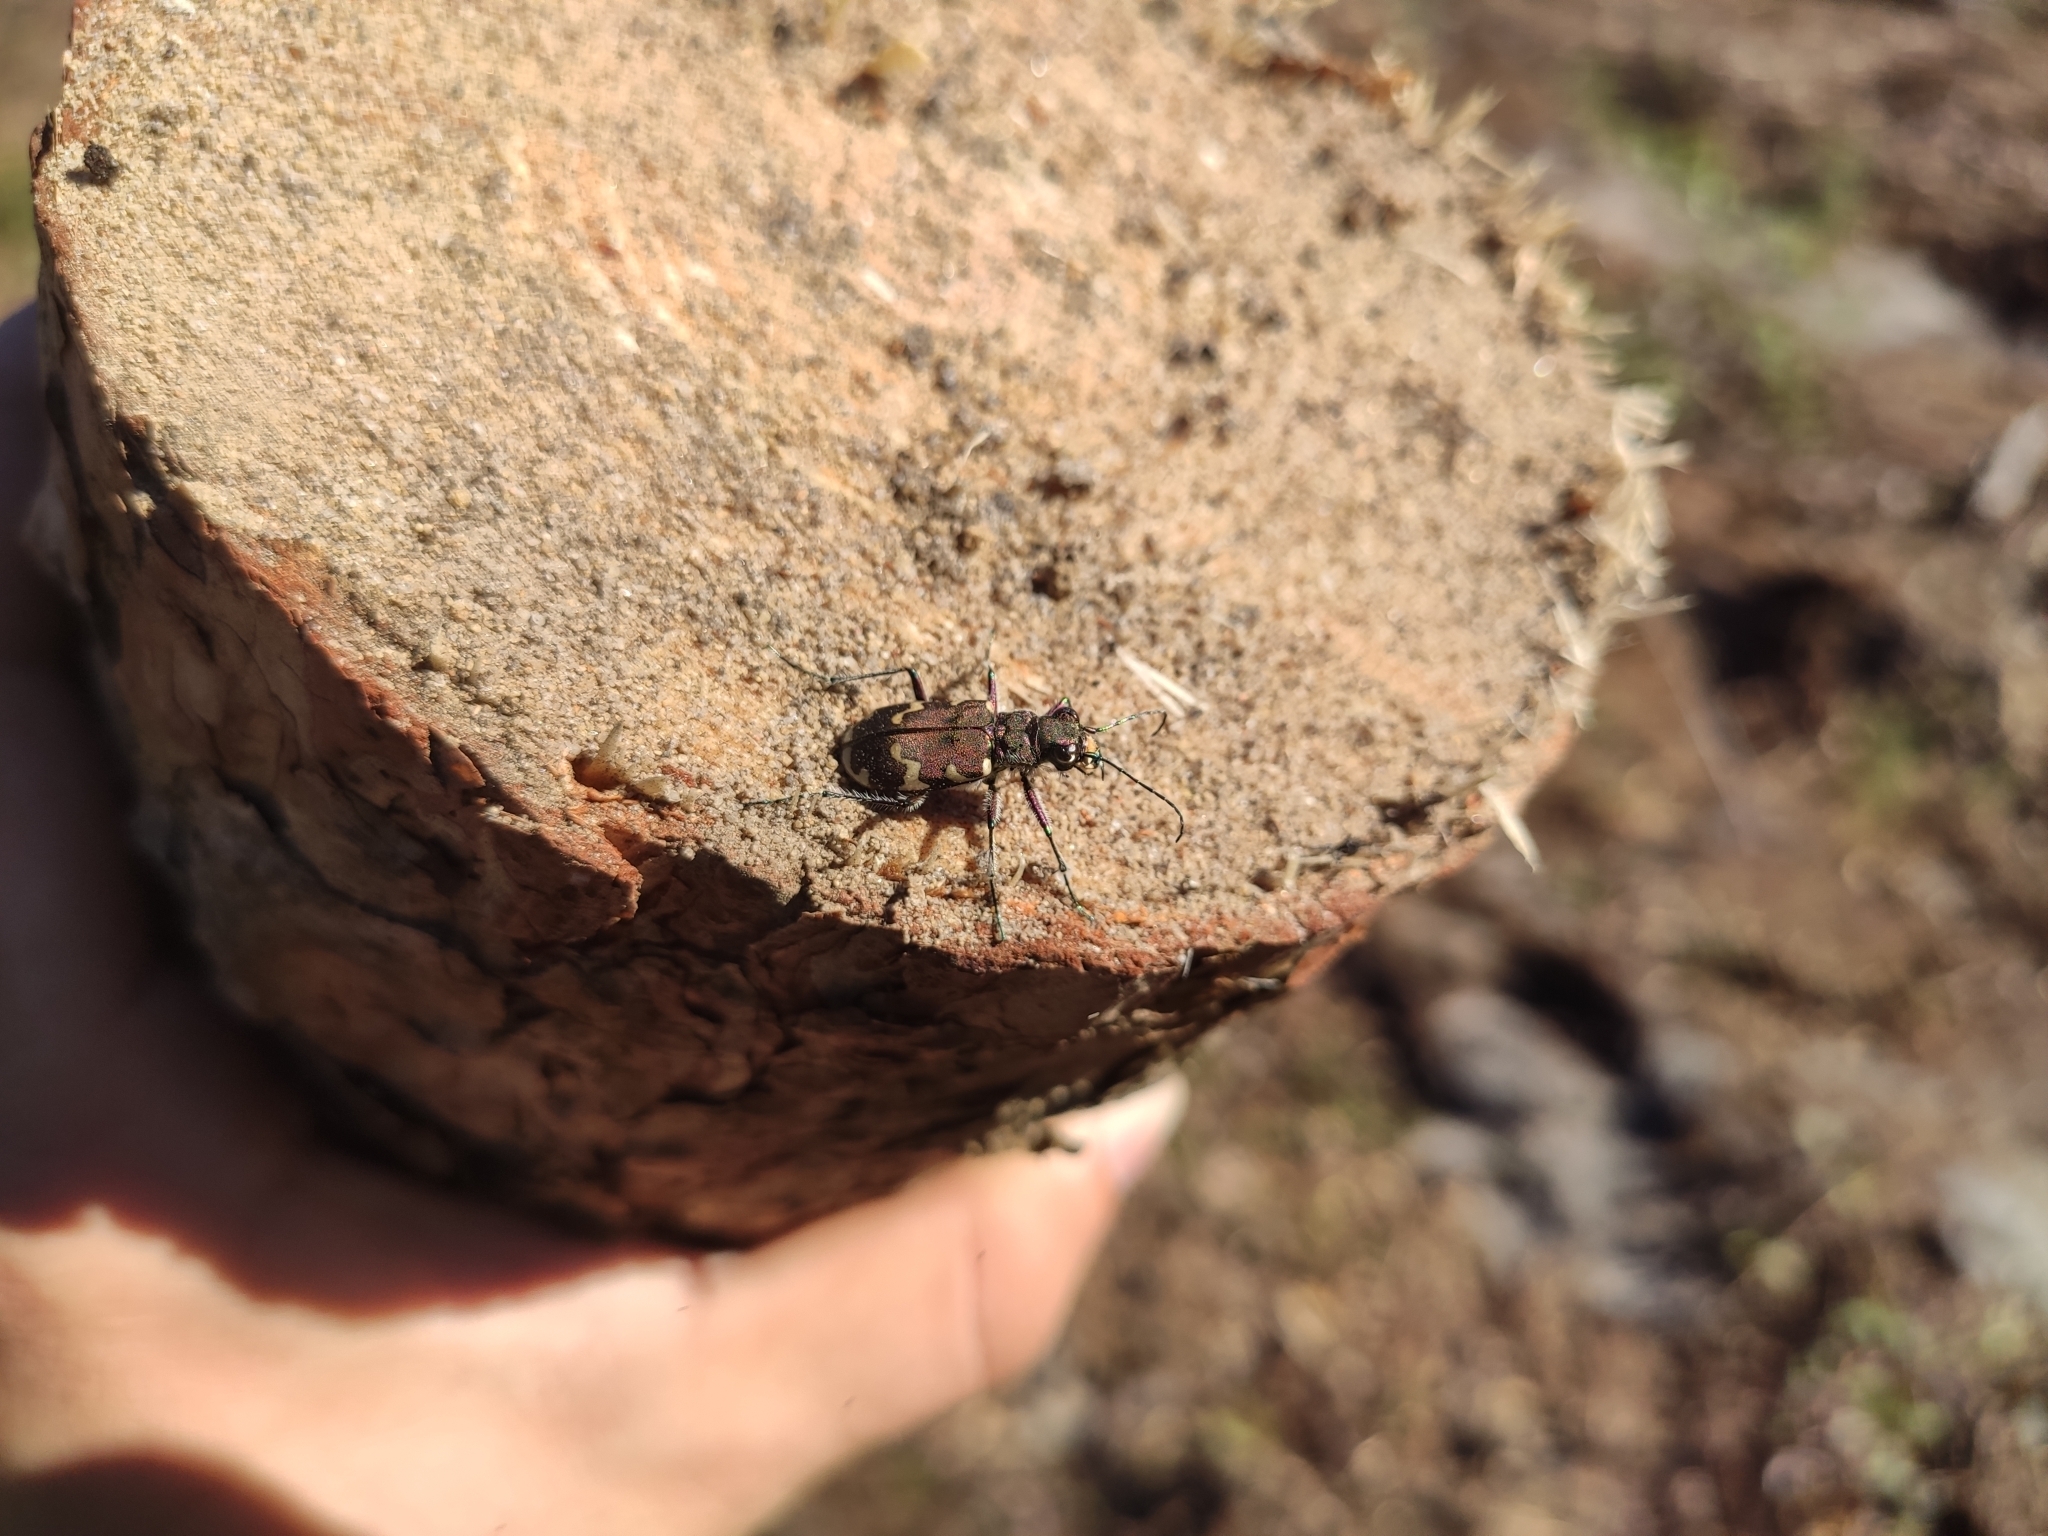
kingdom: Animalia
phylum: Arthropoda
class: Insecta
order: Coleoptera
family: Carabidae
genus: Cicindela
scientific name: Cicindela hybrida
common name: Northern dune tiger beetle
